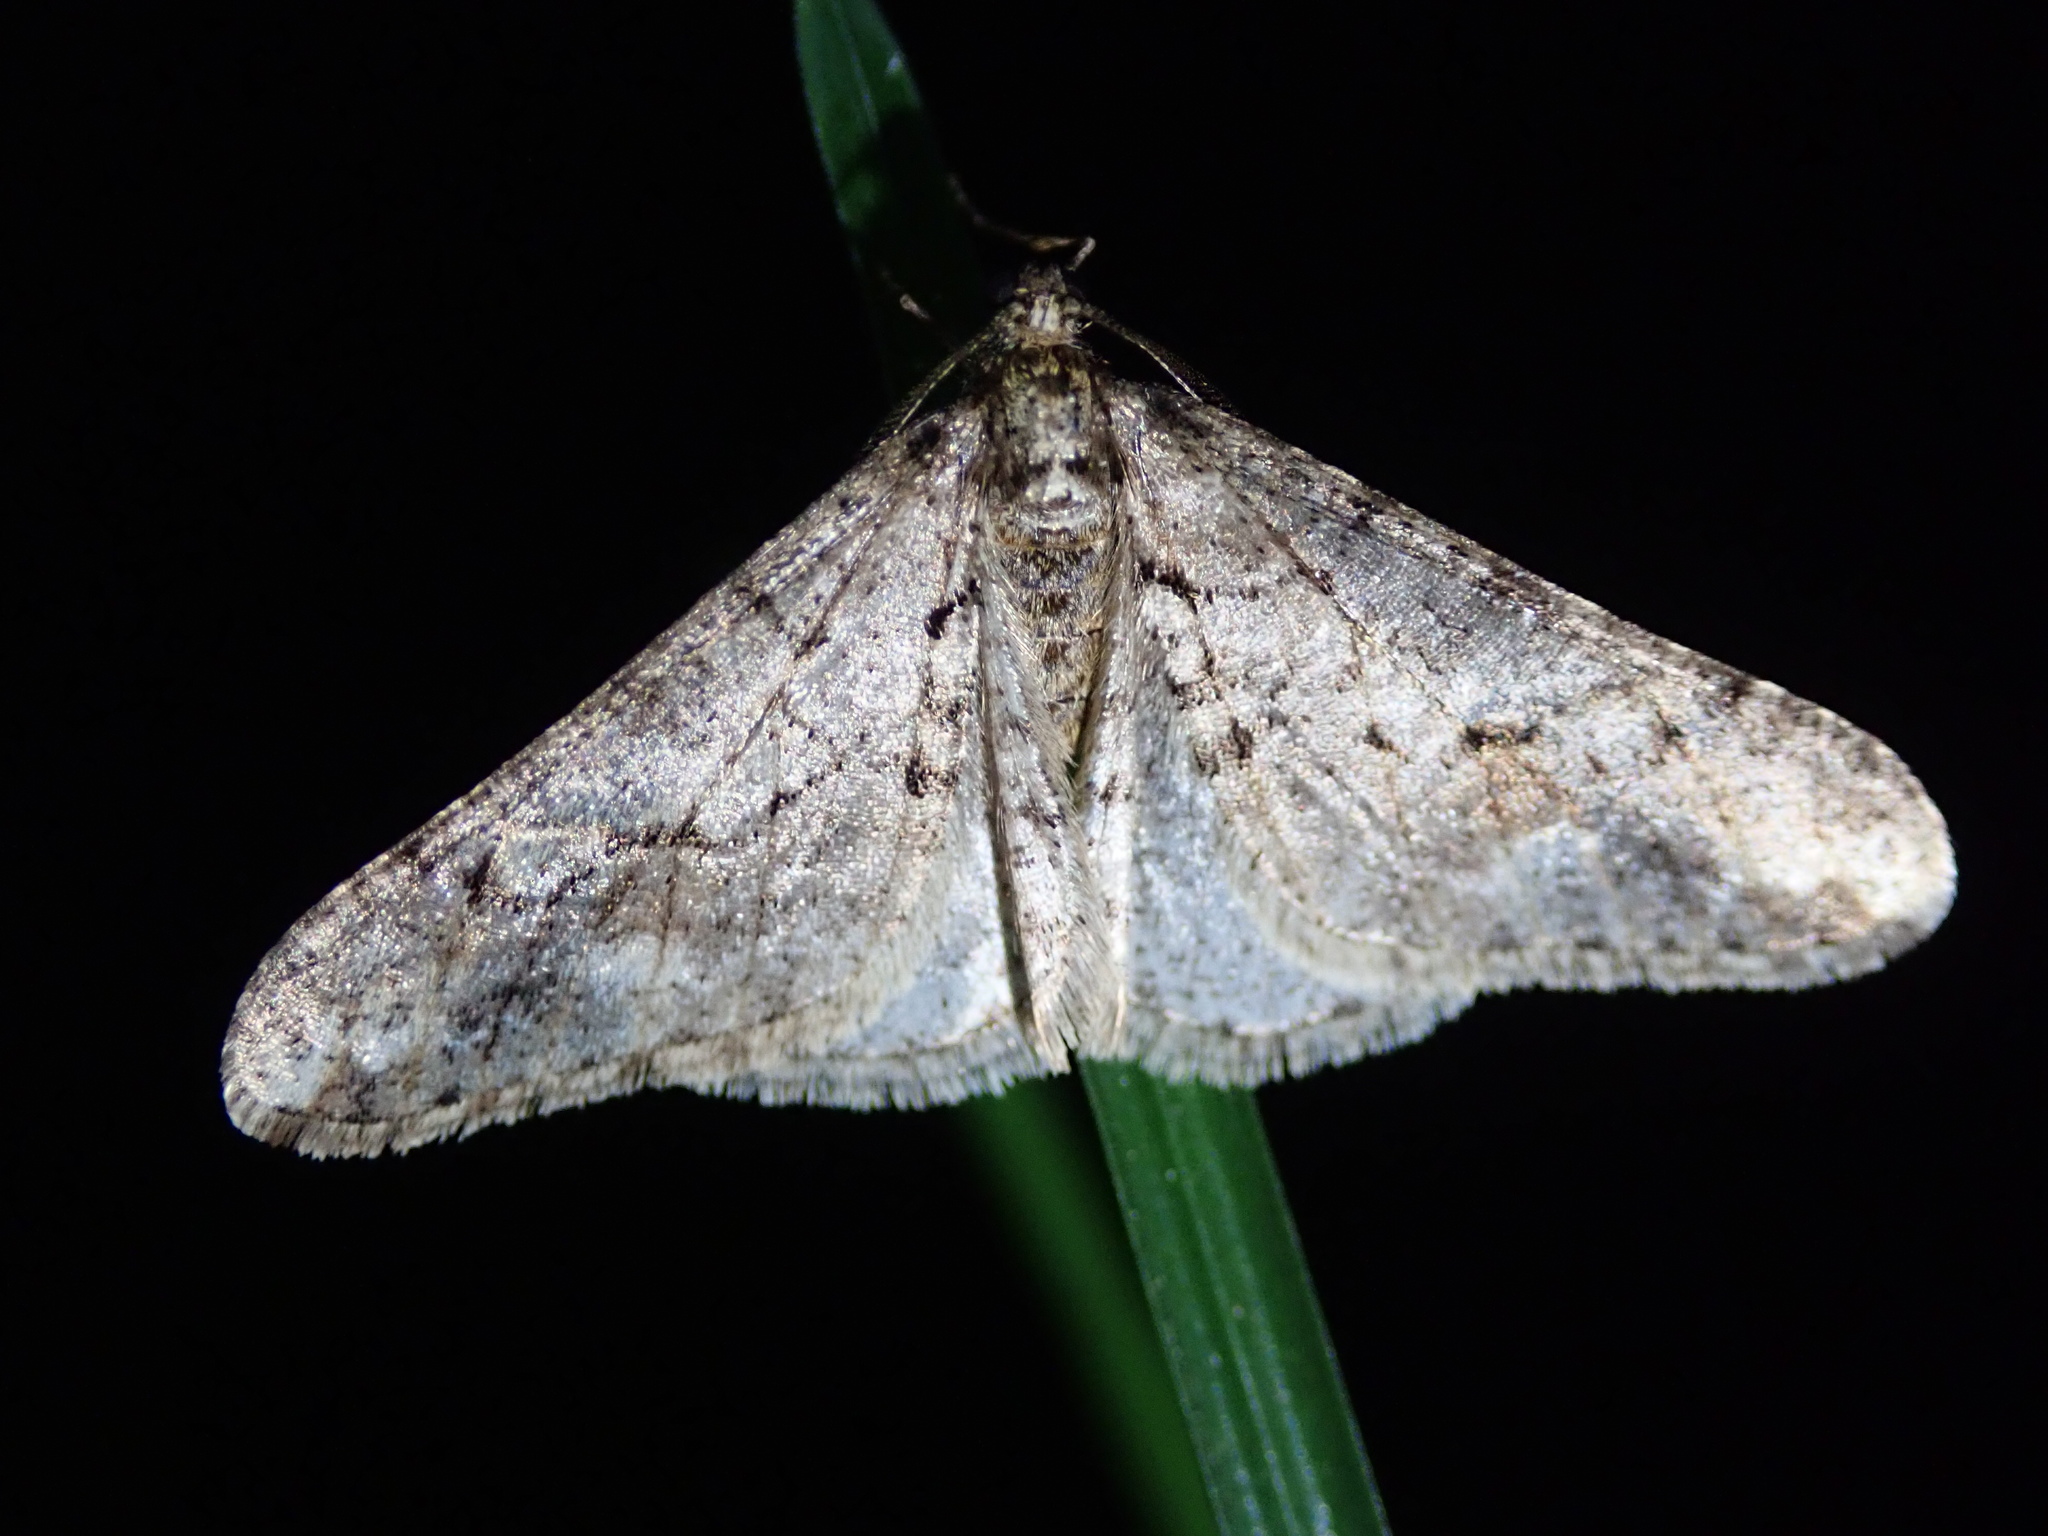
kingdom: Animalia
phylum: Arthropoda
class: Insecta
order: Lepidoptera
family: Geometridae
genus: Agriopis
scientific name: Agriopis leucophaearia
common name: Spring usher
